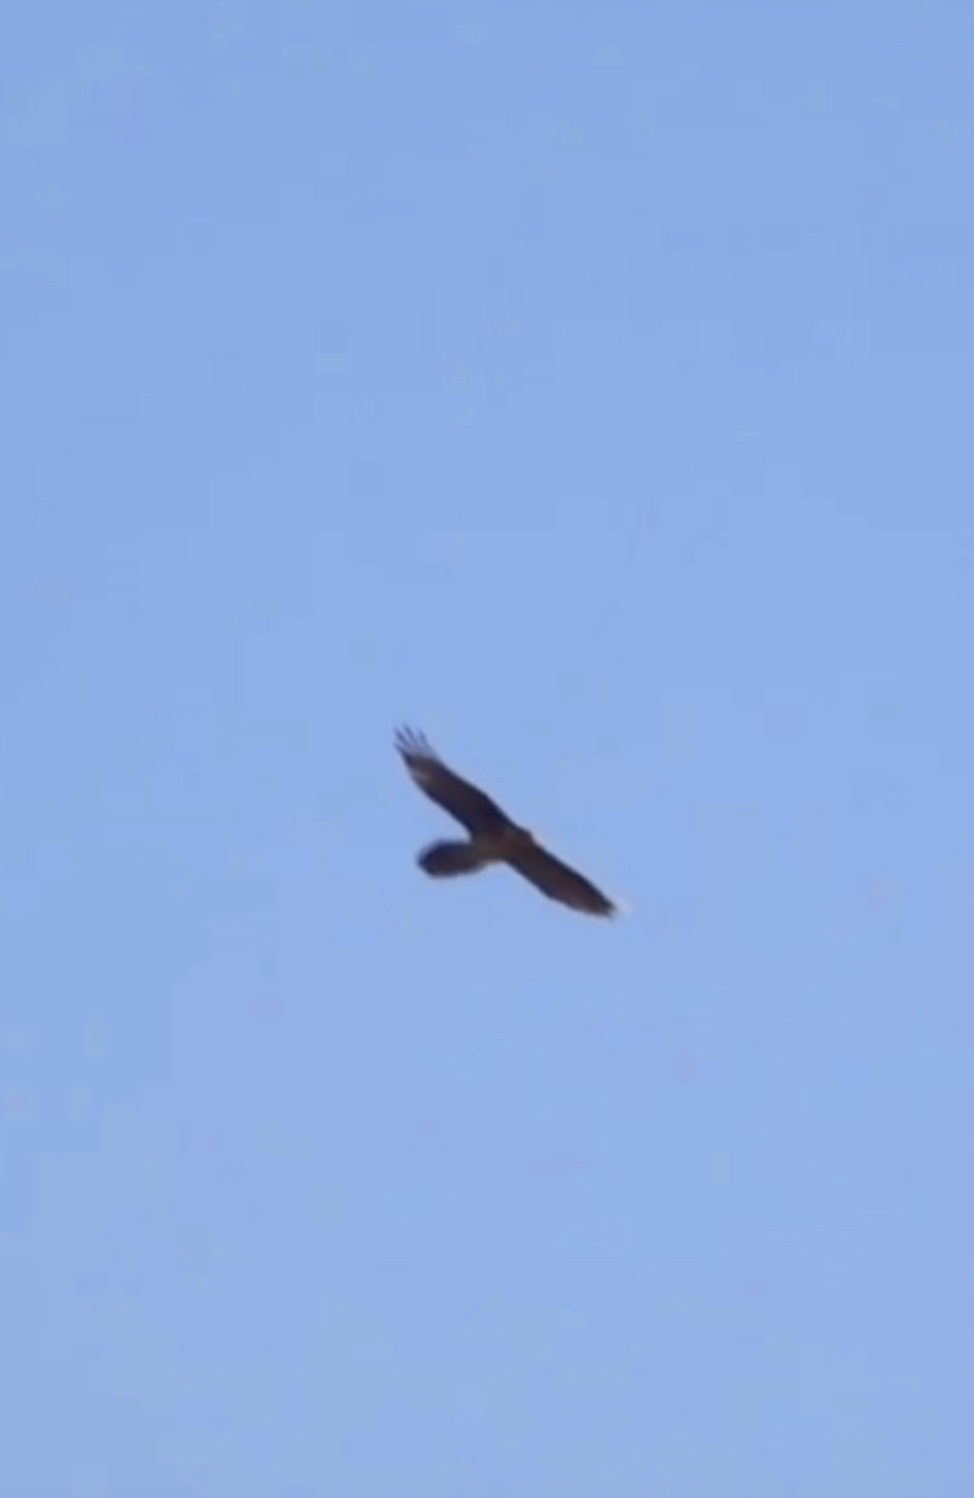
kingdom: Animalia
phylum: Chordata
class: Aves
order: Accipitriformes
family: Accipitridae
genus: Gypaetus
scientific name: Gypaetus barbatus
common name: Bearded vulture
